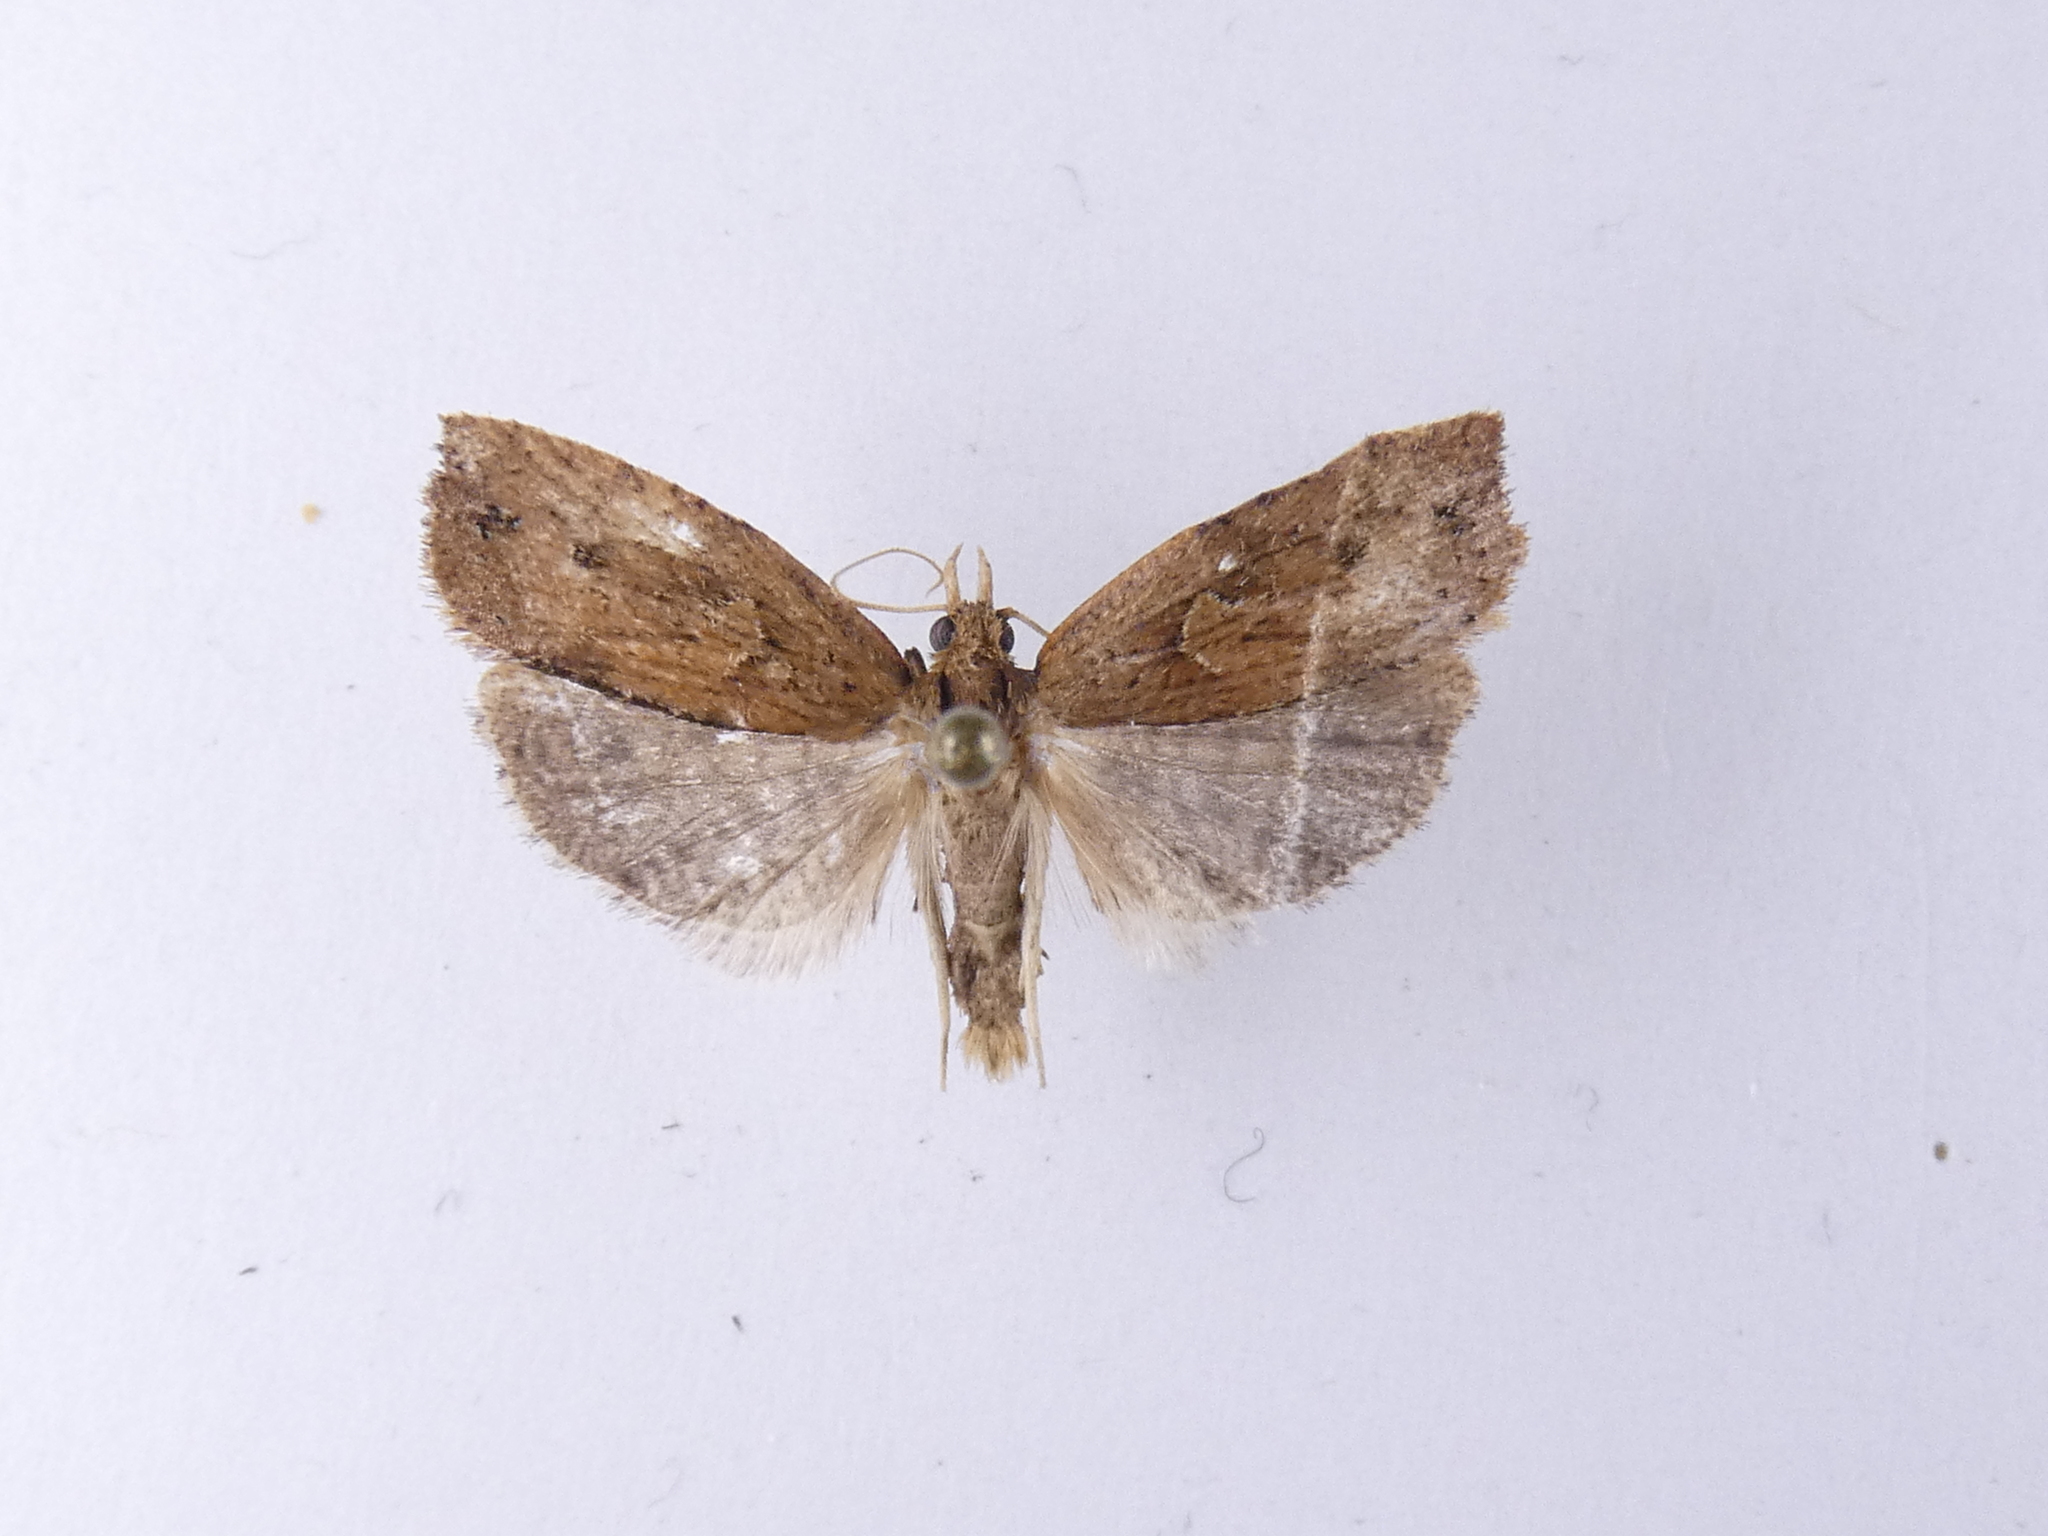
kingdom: Animalia
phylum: Arthropoda
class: Insecta
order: Lepidoptera
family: Tortricidae
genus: Planotortrix
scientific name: Planotortrix notophaea
